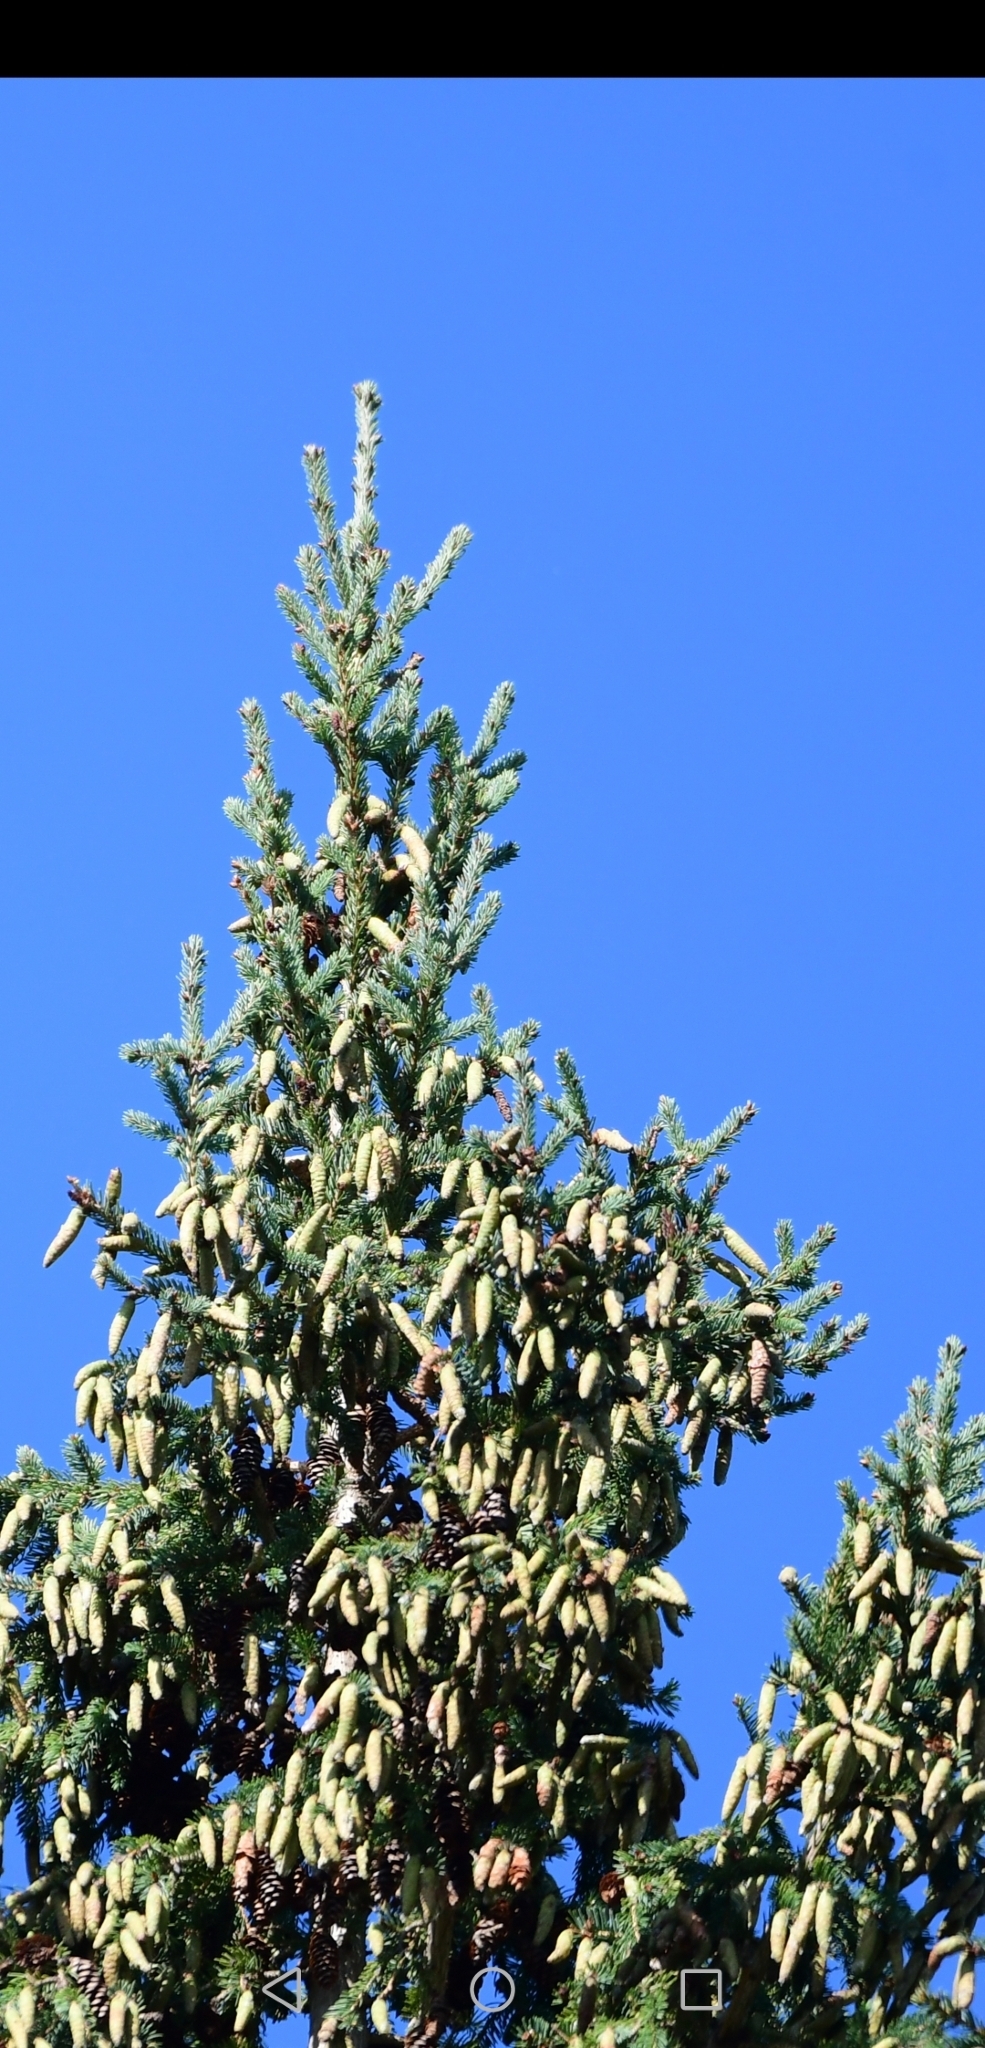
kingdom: Plantae
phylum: Tracheophyta
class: Pinopsida
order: Pinales
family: Pinaceae
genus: Picea
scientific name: Picea glauca
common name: White spruce
